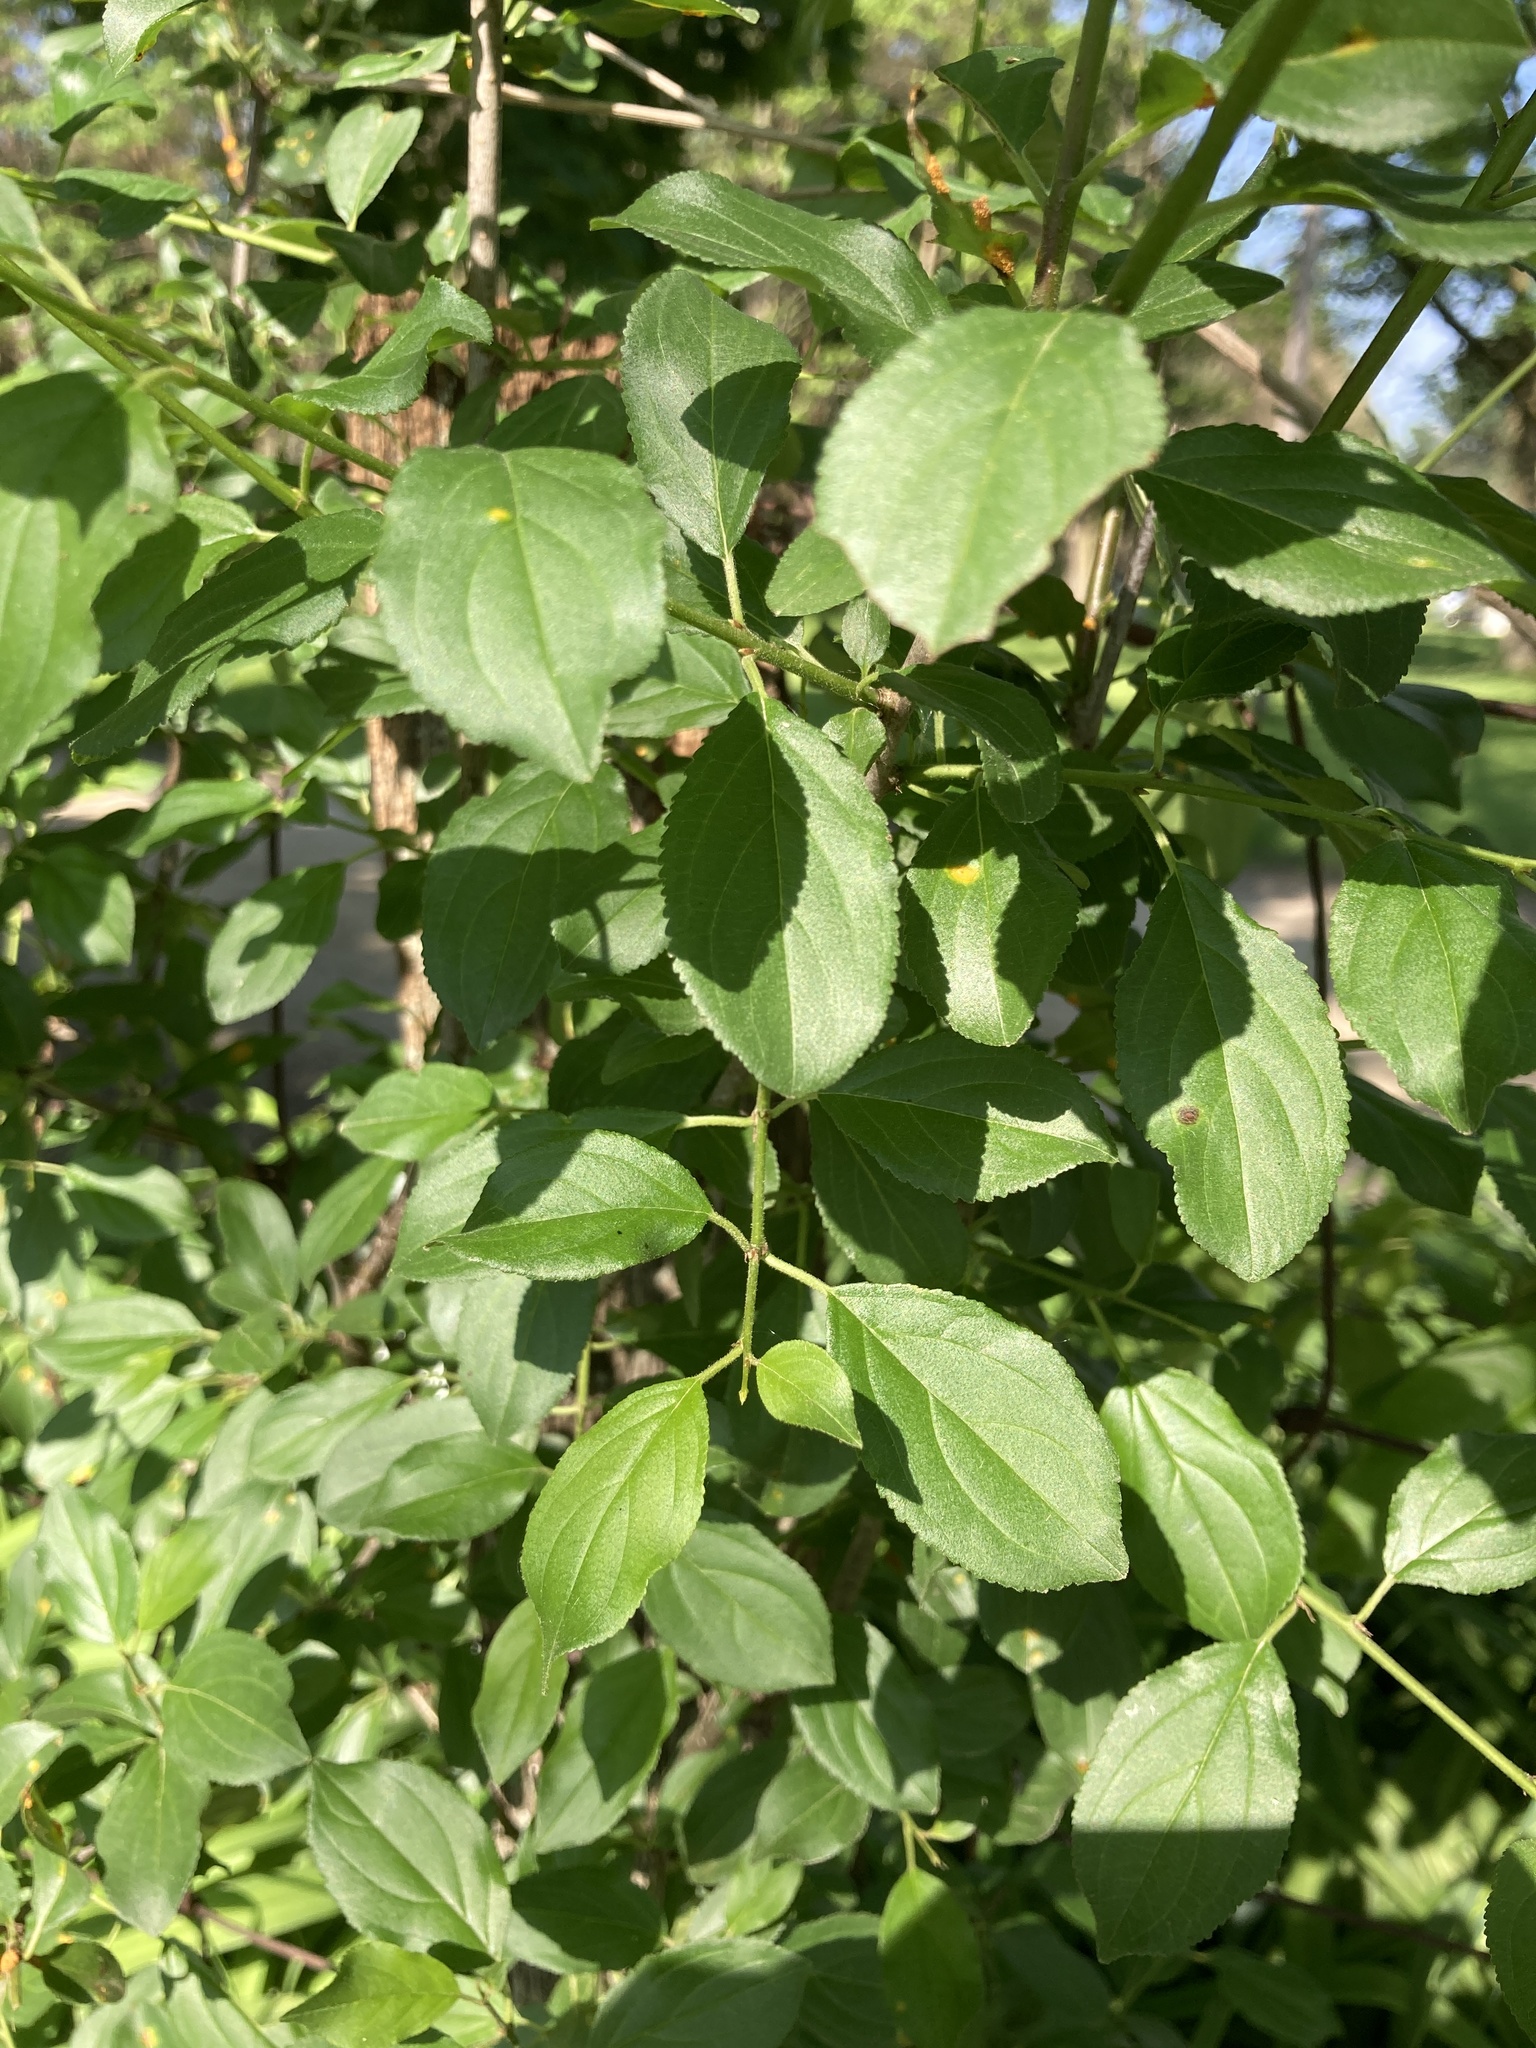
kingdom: Plantae
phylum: Tracheophyta
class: Magnoliopsida
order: Rosales
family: Rhamnaceae
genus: Rhamnus
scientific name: Rhamnus cathartica
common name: Common buckthorn
